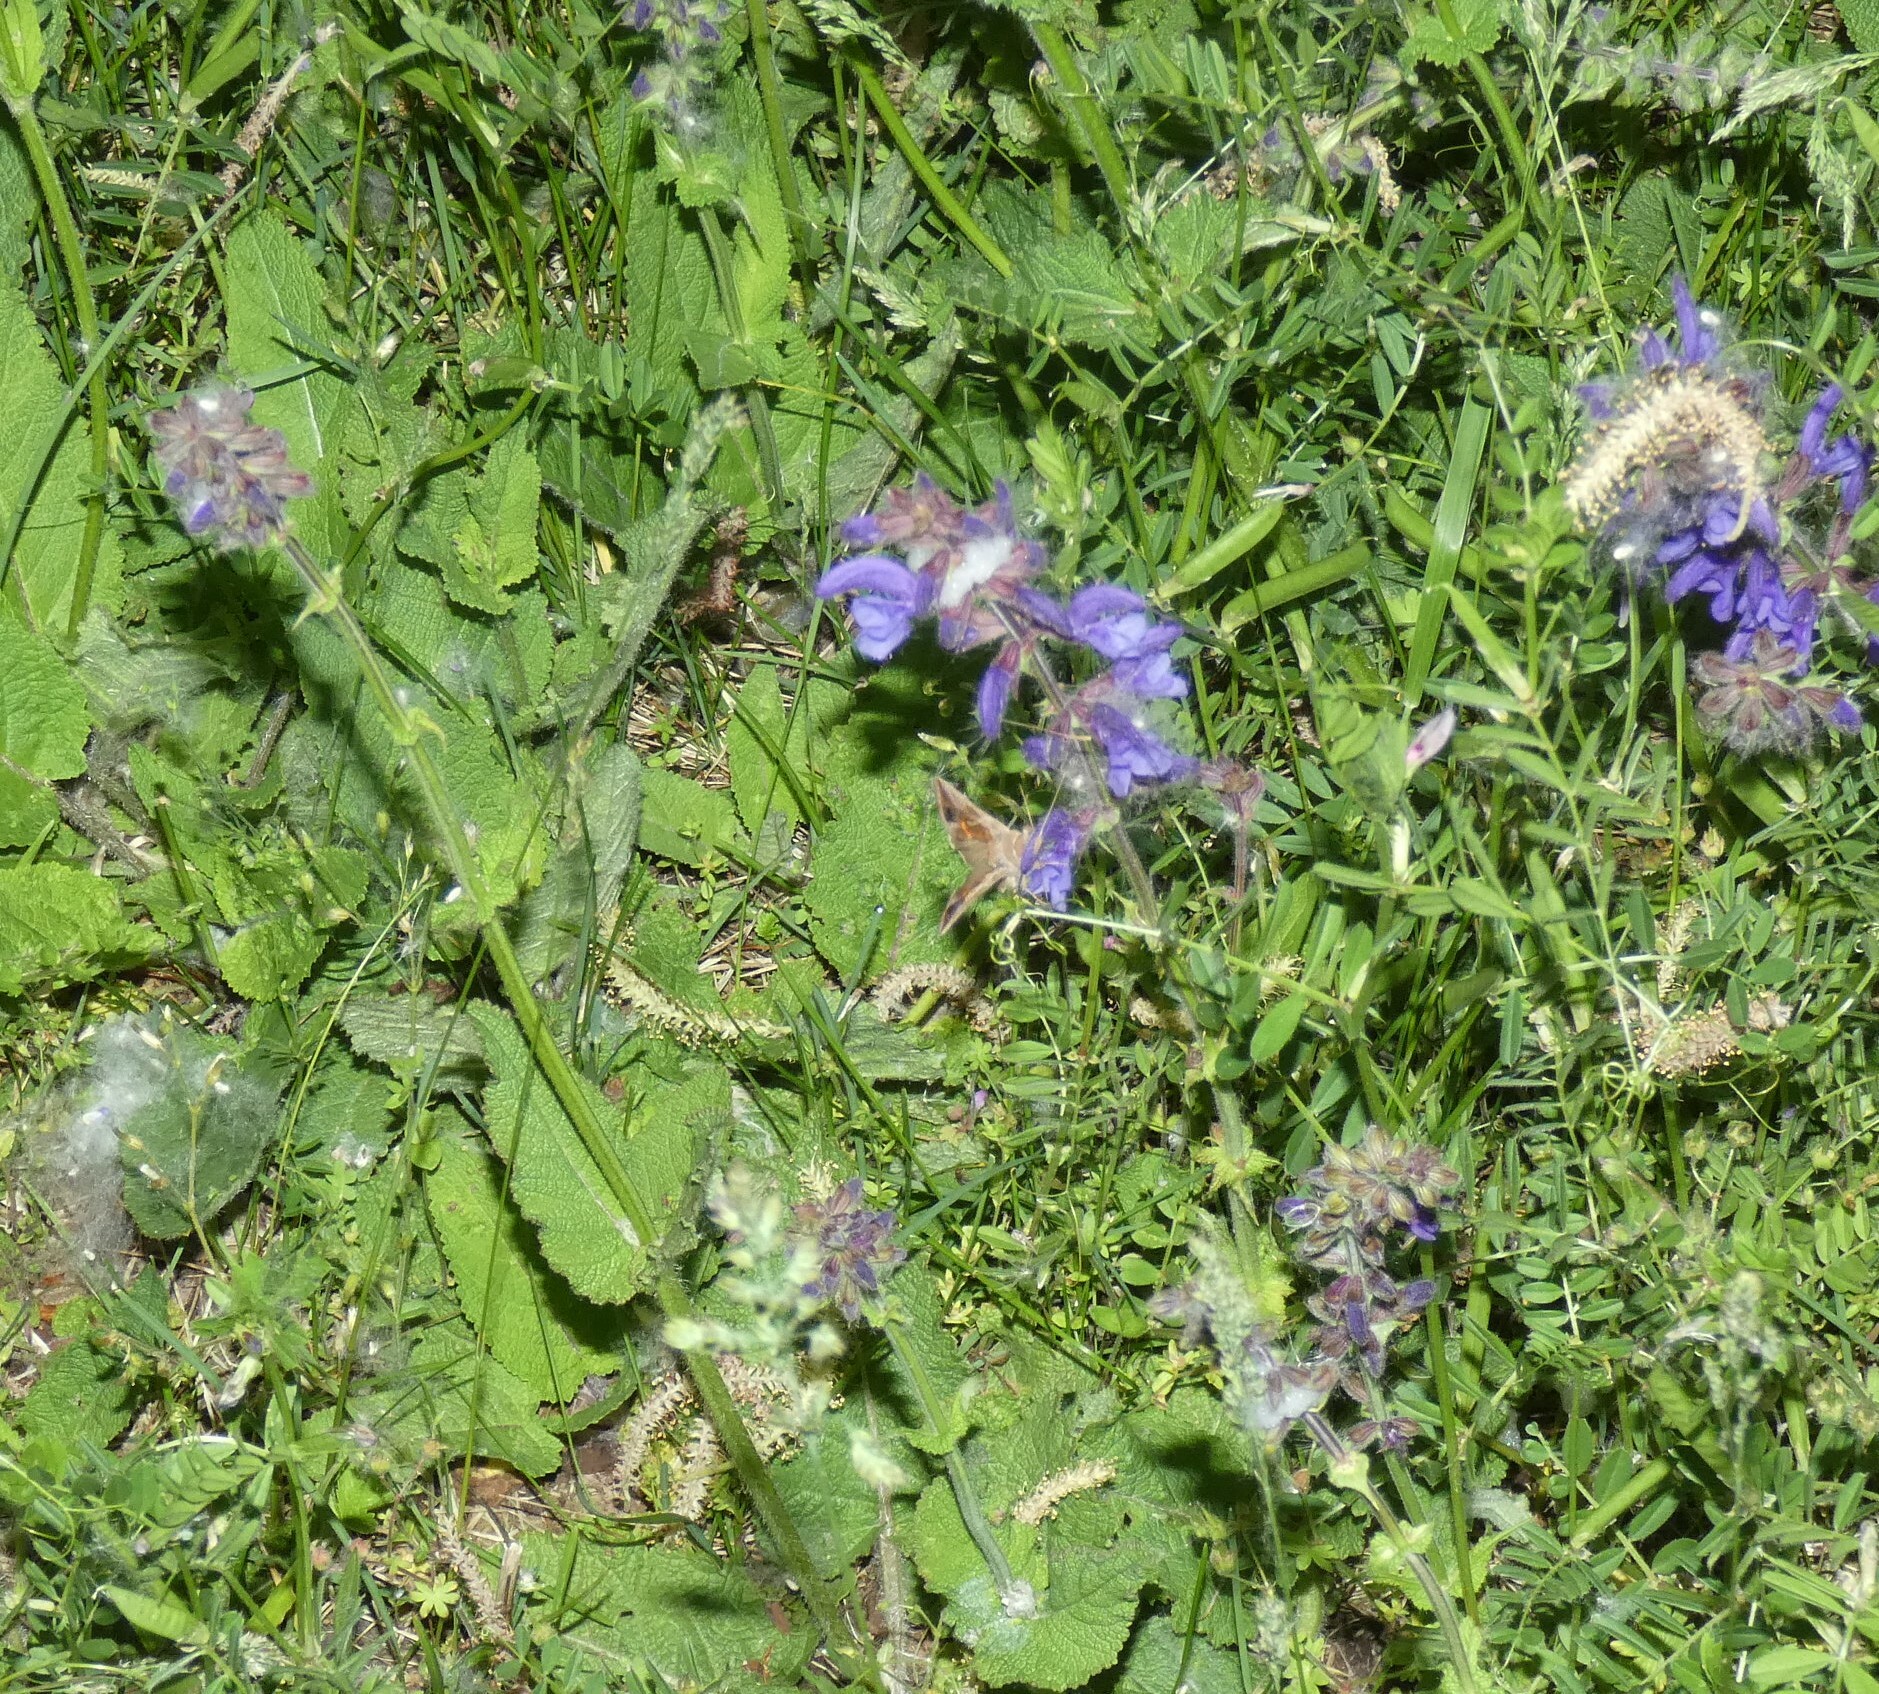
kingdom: Animalia
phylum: Arthropoda
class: Insecta
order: Lepidoptera
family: Noctuidae
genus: Macdunnoughia
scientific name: Macdunnoughia confusa
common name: Dewick's plusia
